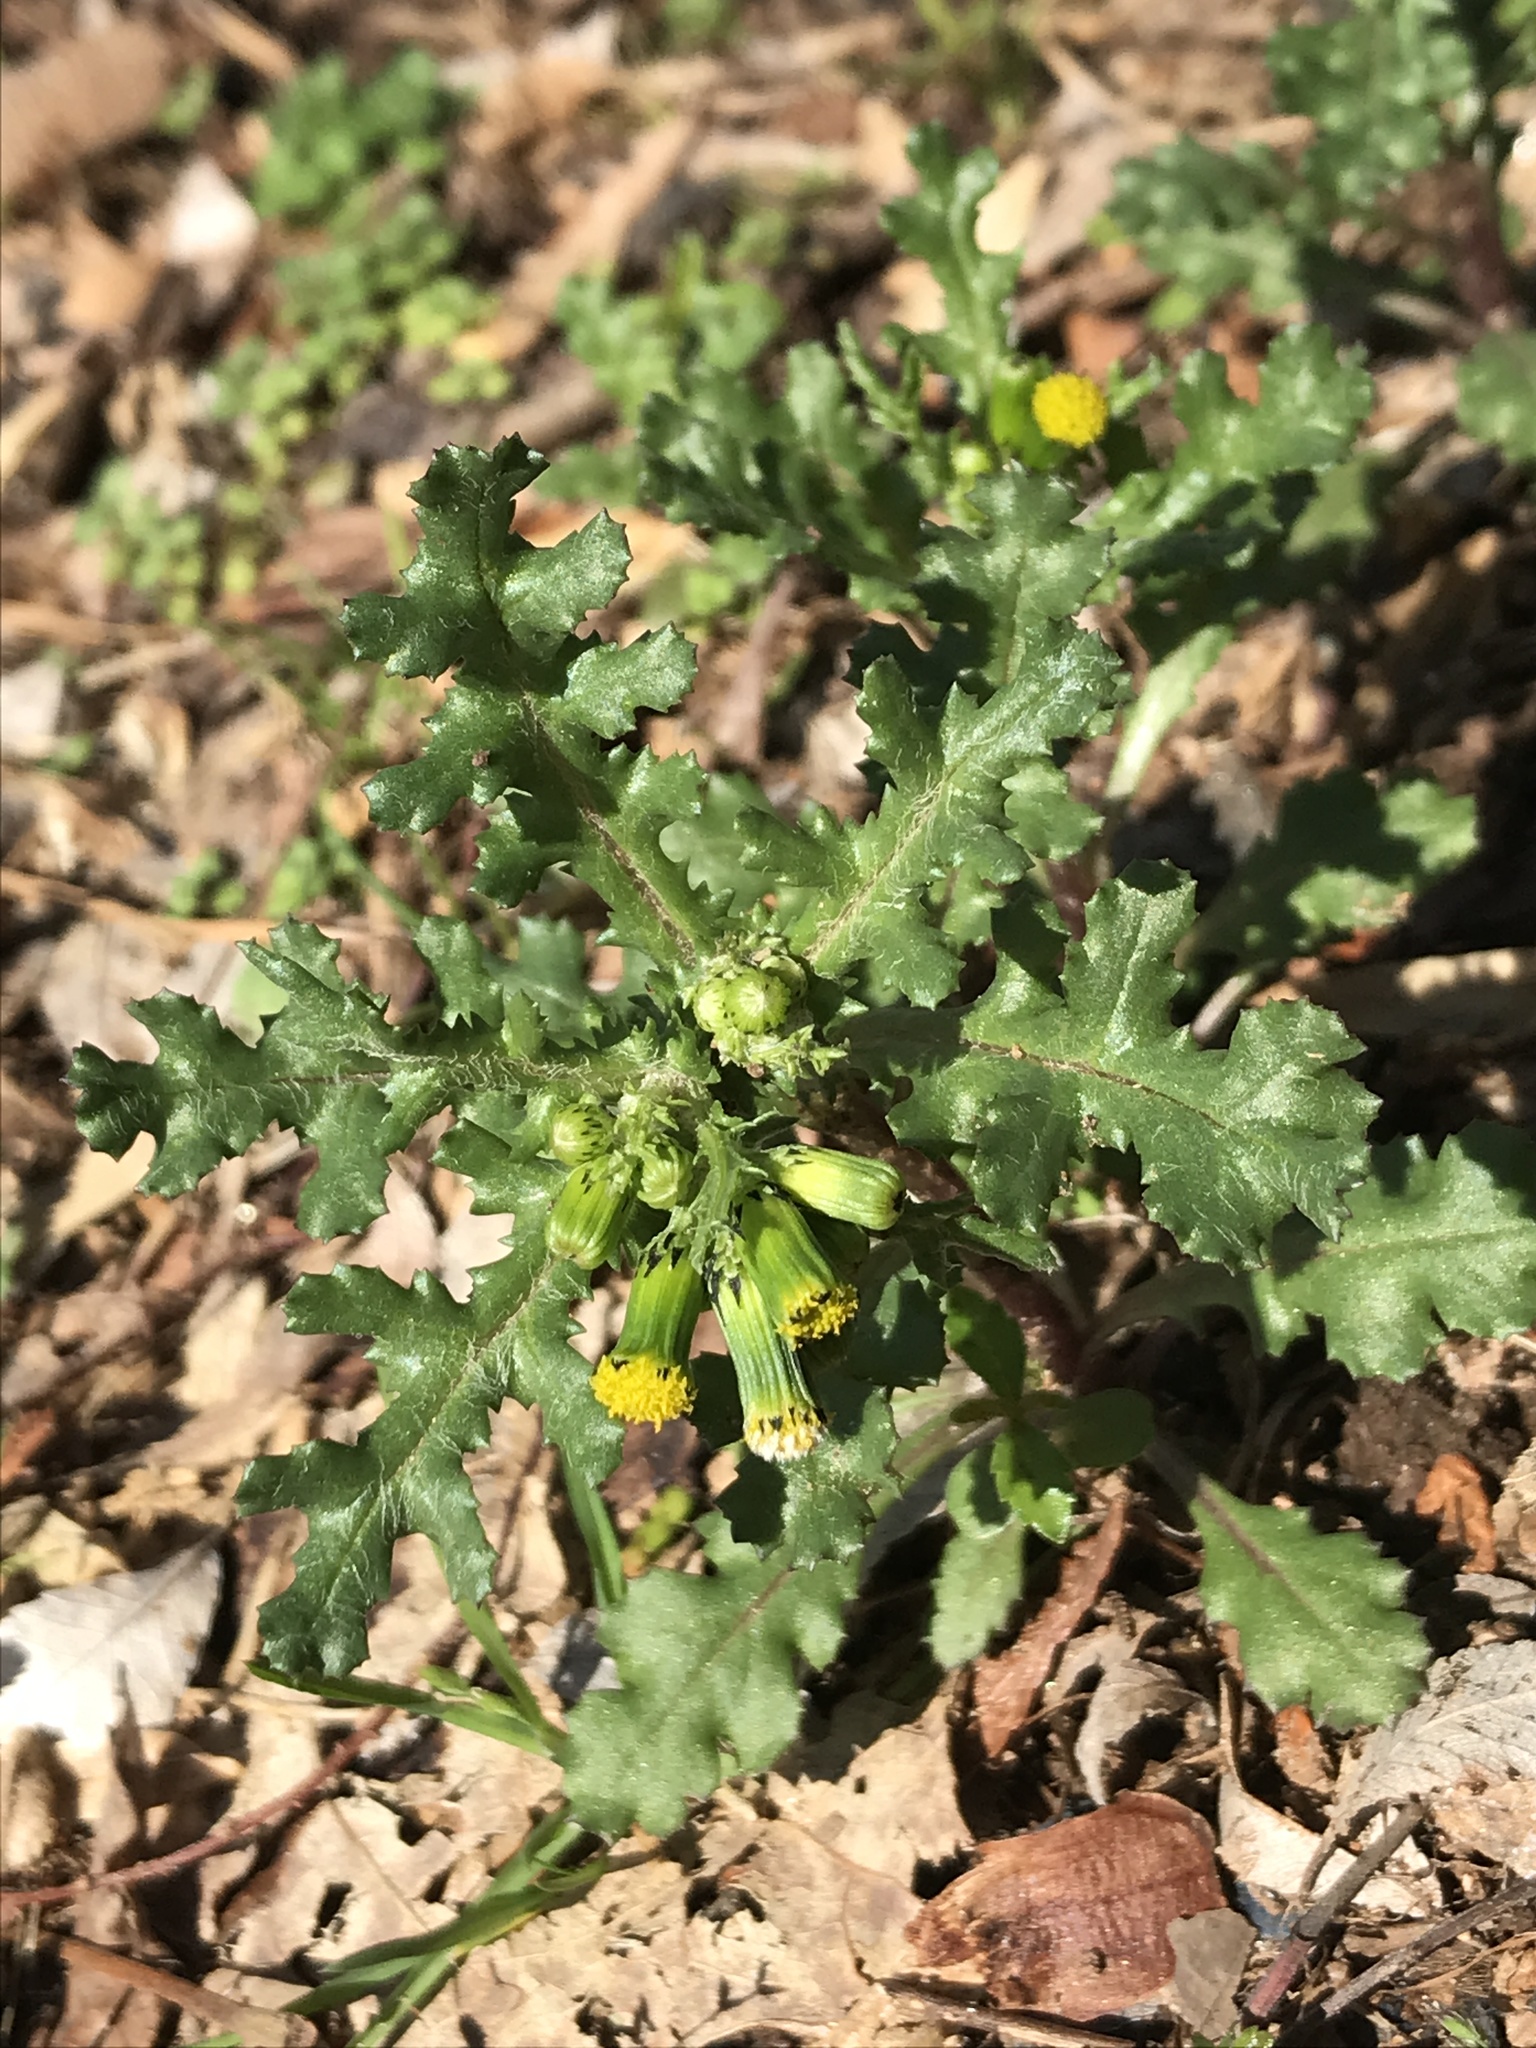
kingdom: Plantae
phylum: Tracheophyta
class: Magnoliopsida
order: Asterales
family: Asteraceae
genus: Senecio
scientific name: Senecio vulgaris
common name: Old-man-in-the-spring
